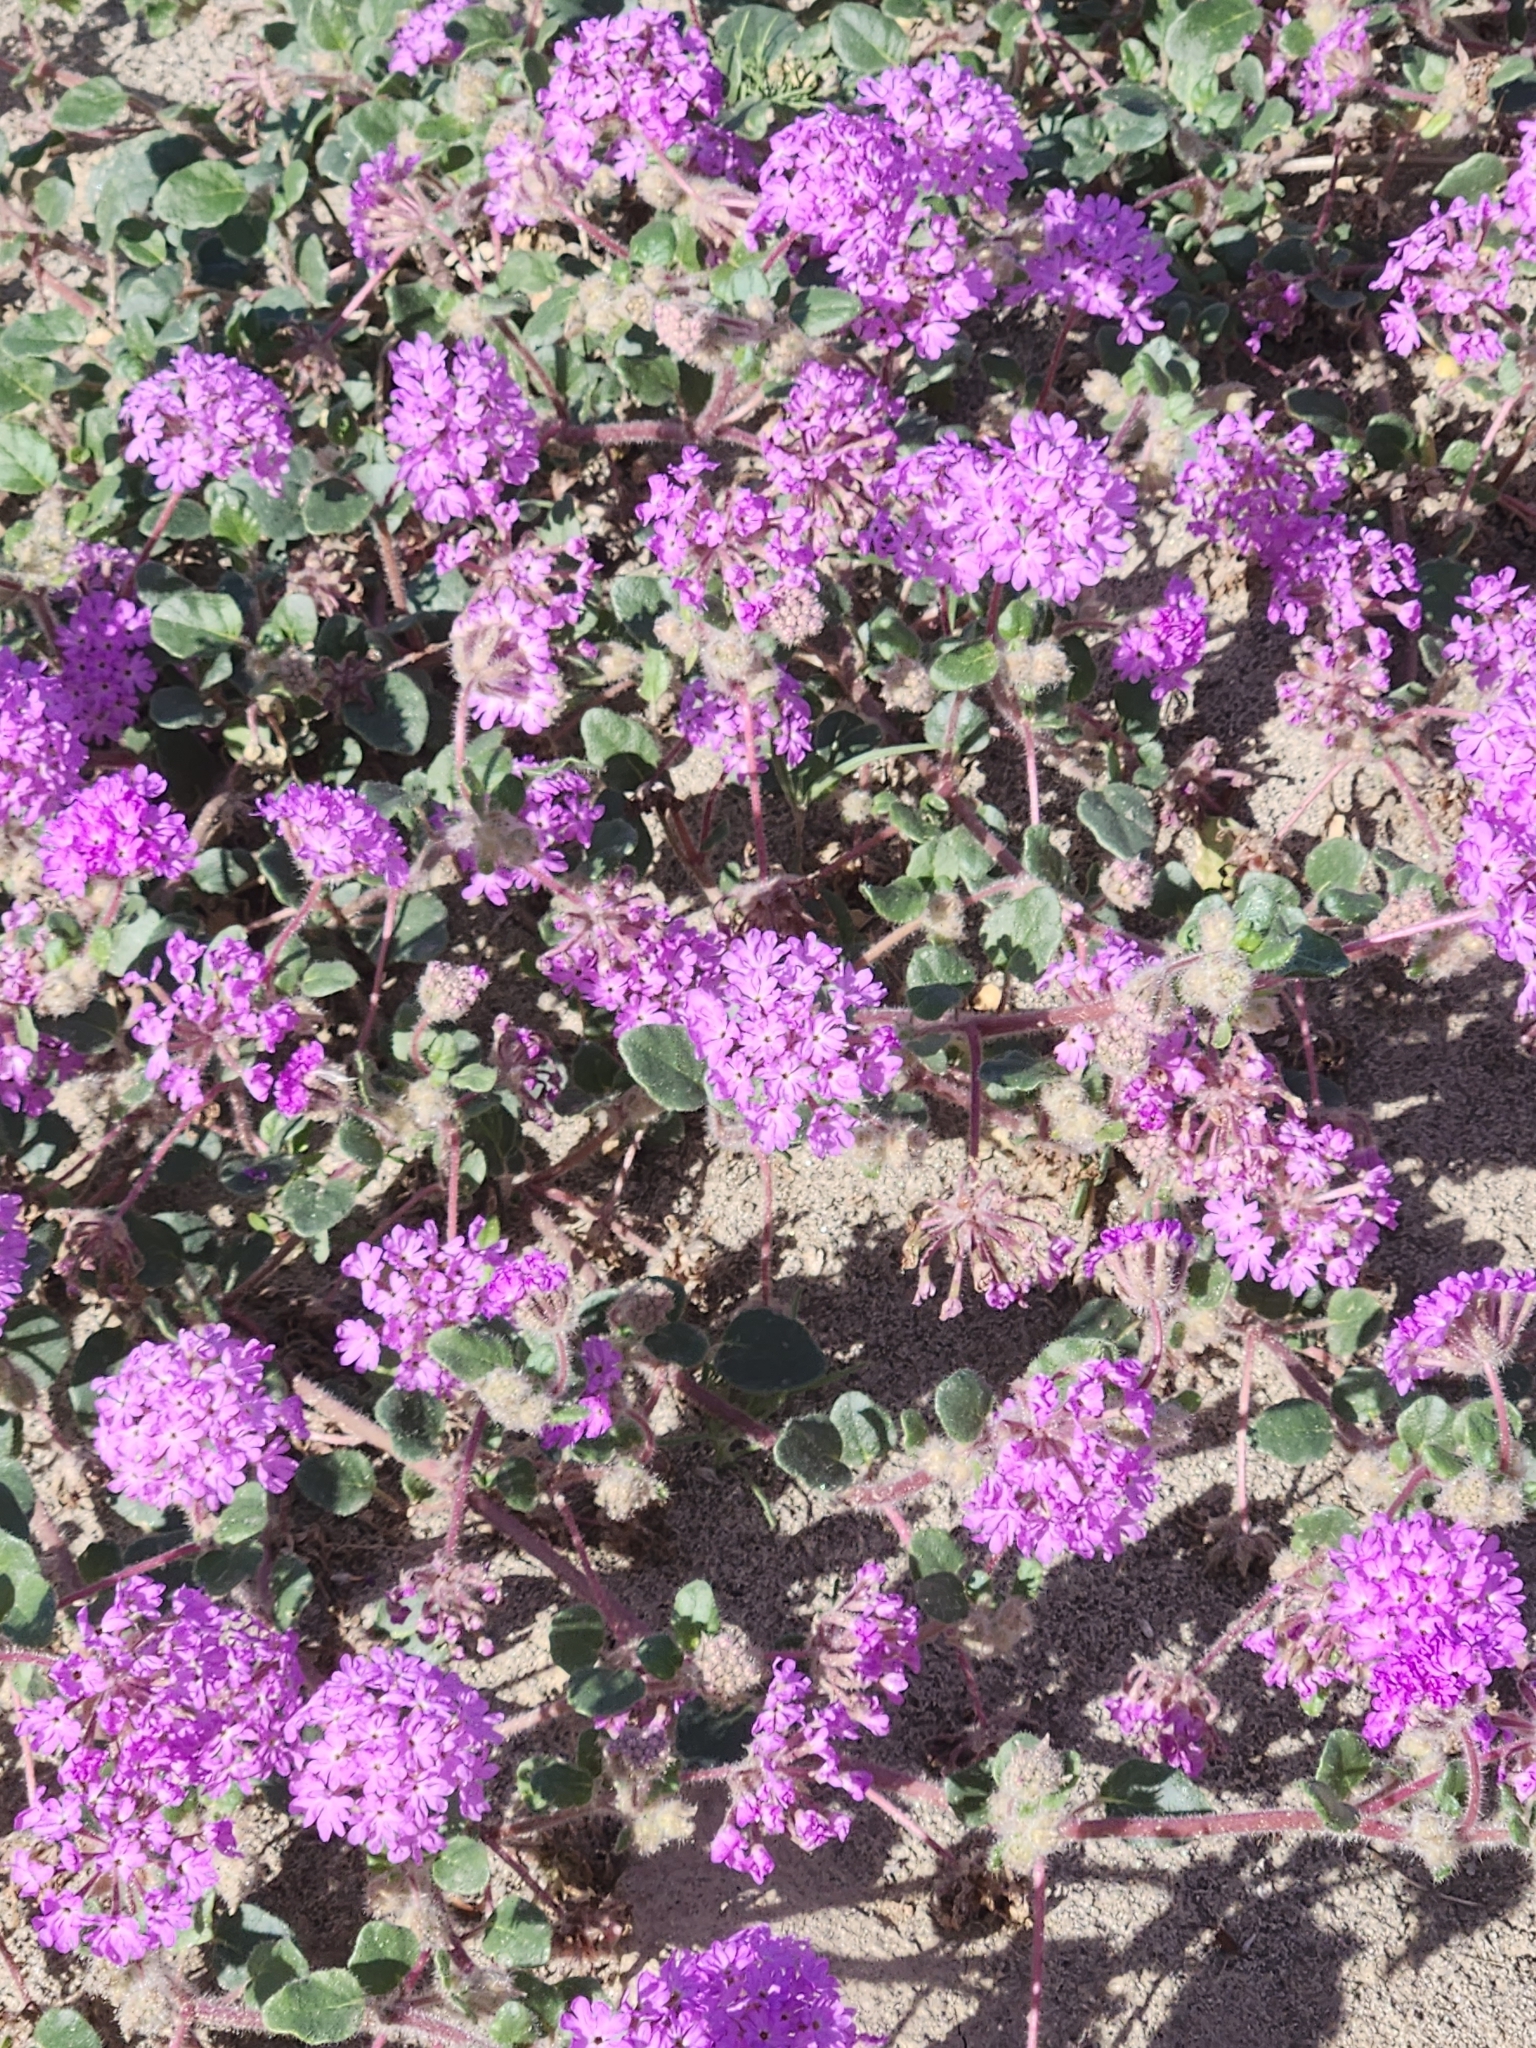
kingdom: Plantae
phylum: Tracheophyta
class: Magnoliopsida
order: Caryophyllales
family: Nyctaginaceae
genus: Abronia
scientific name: Abronia villosa
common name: Desert sand-verbena
